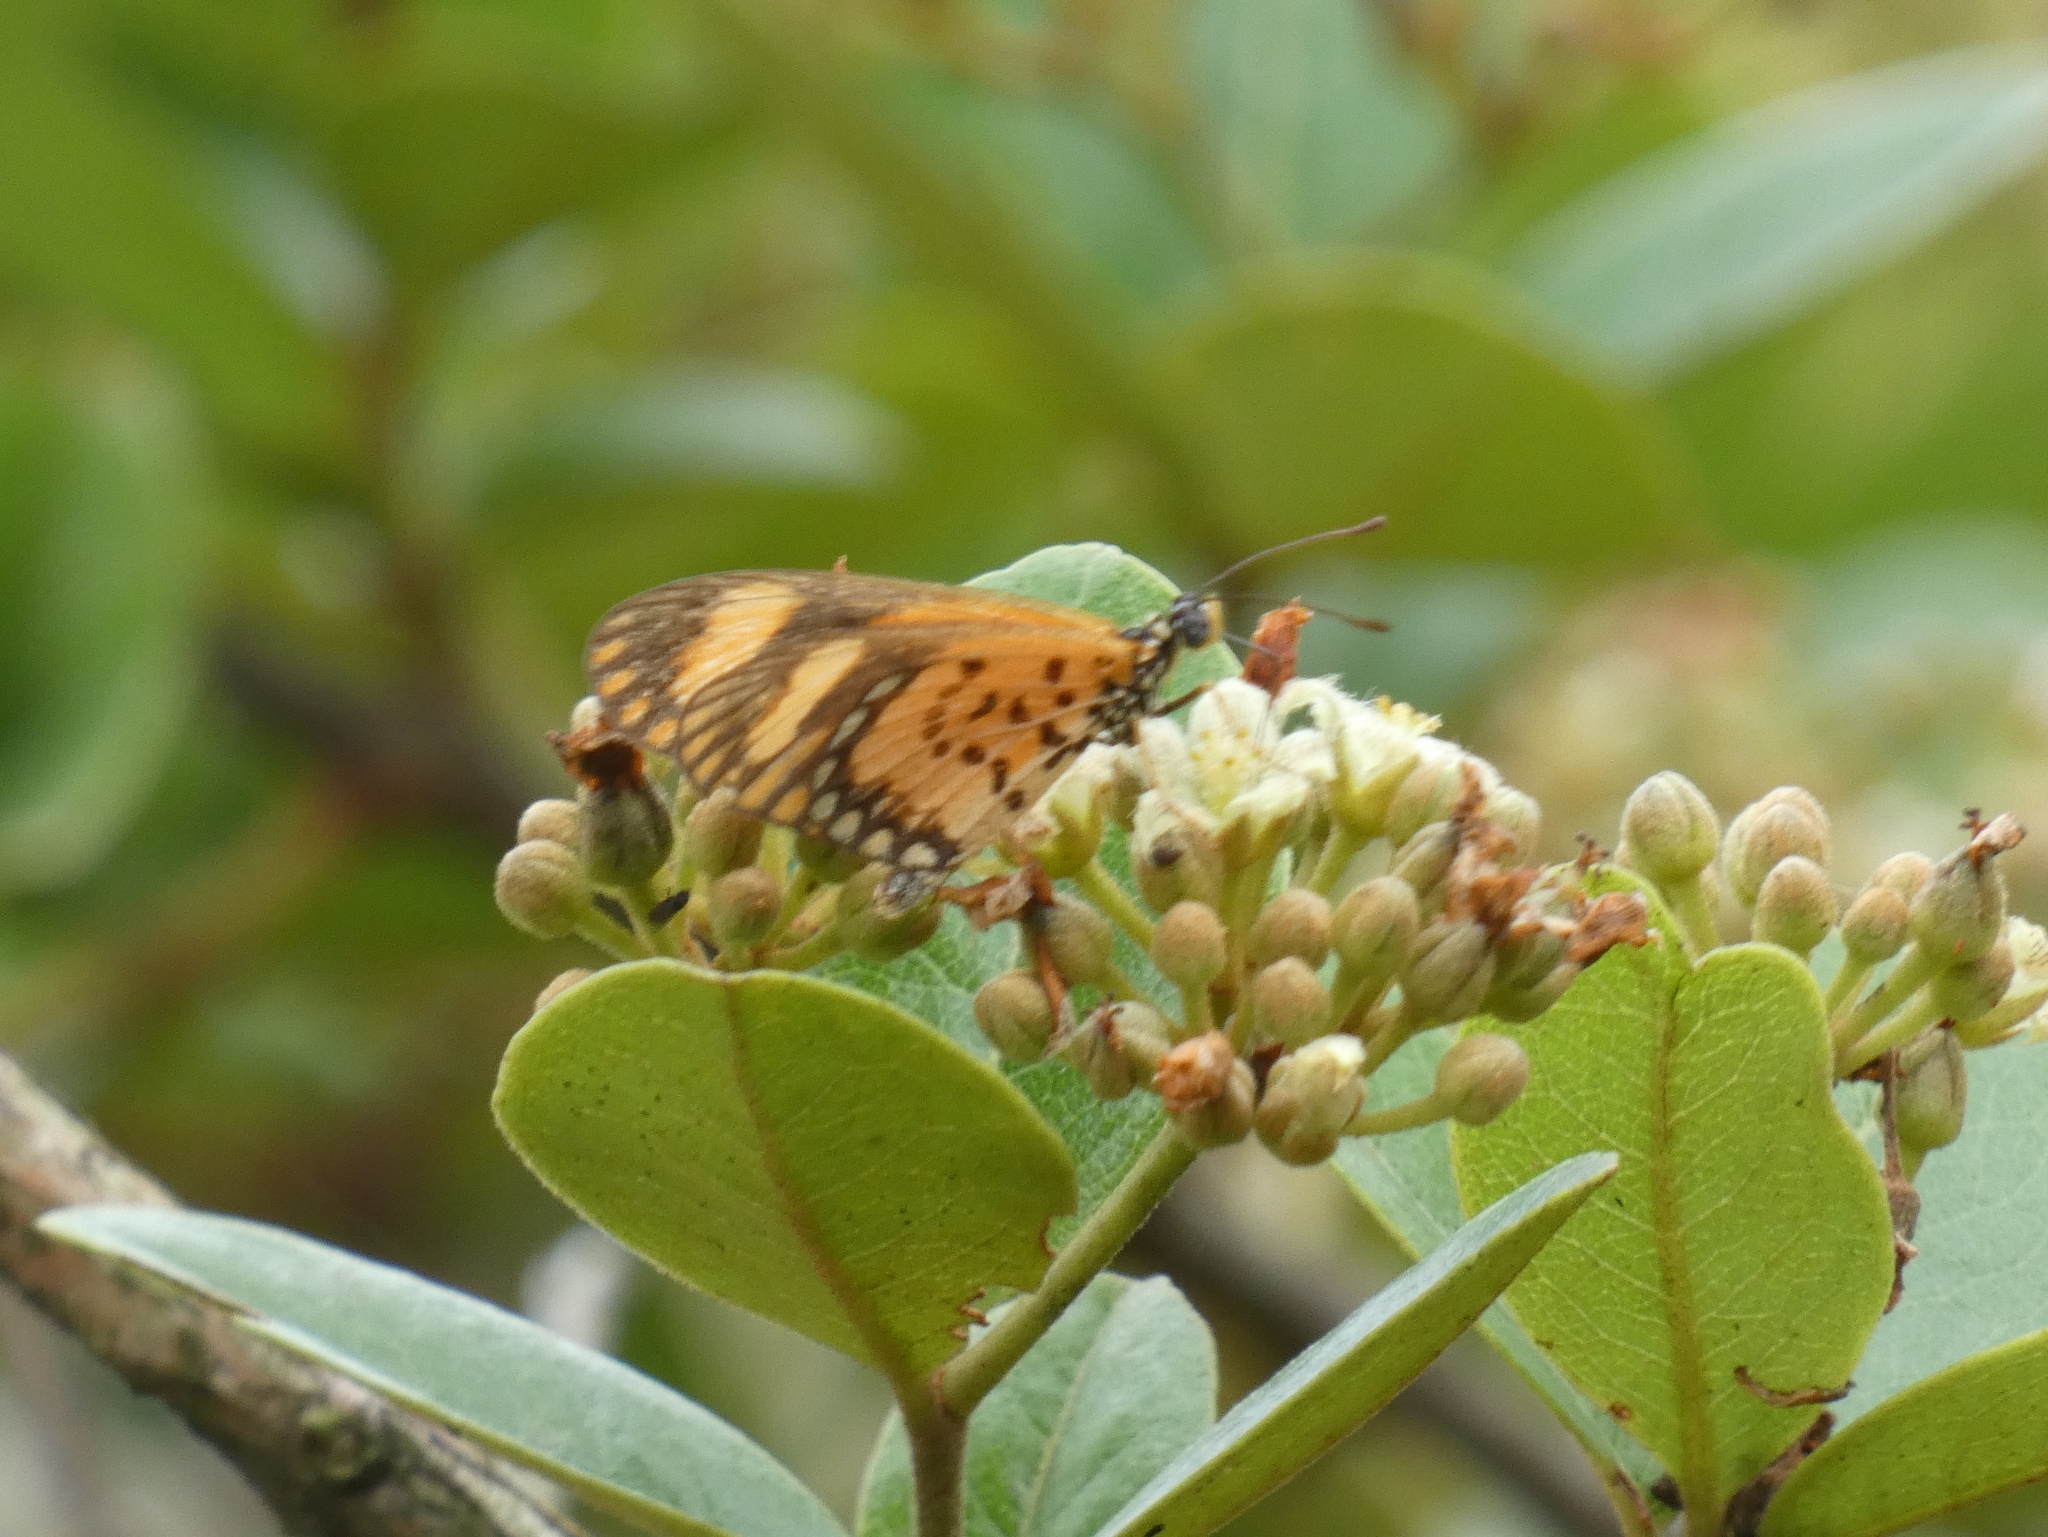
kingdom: Animalia
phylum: Arthropoda
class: Insecta
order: Lepidoptera
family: Nymphalidae
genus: Acraea
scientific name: Acraea Telchinia serena
